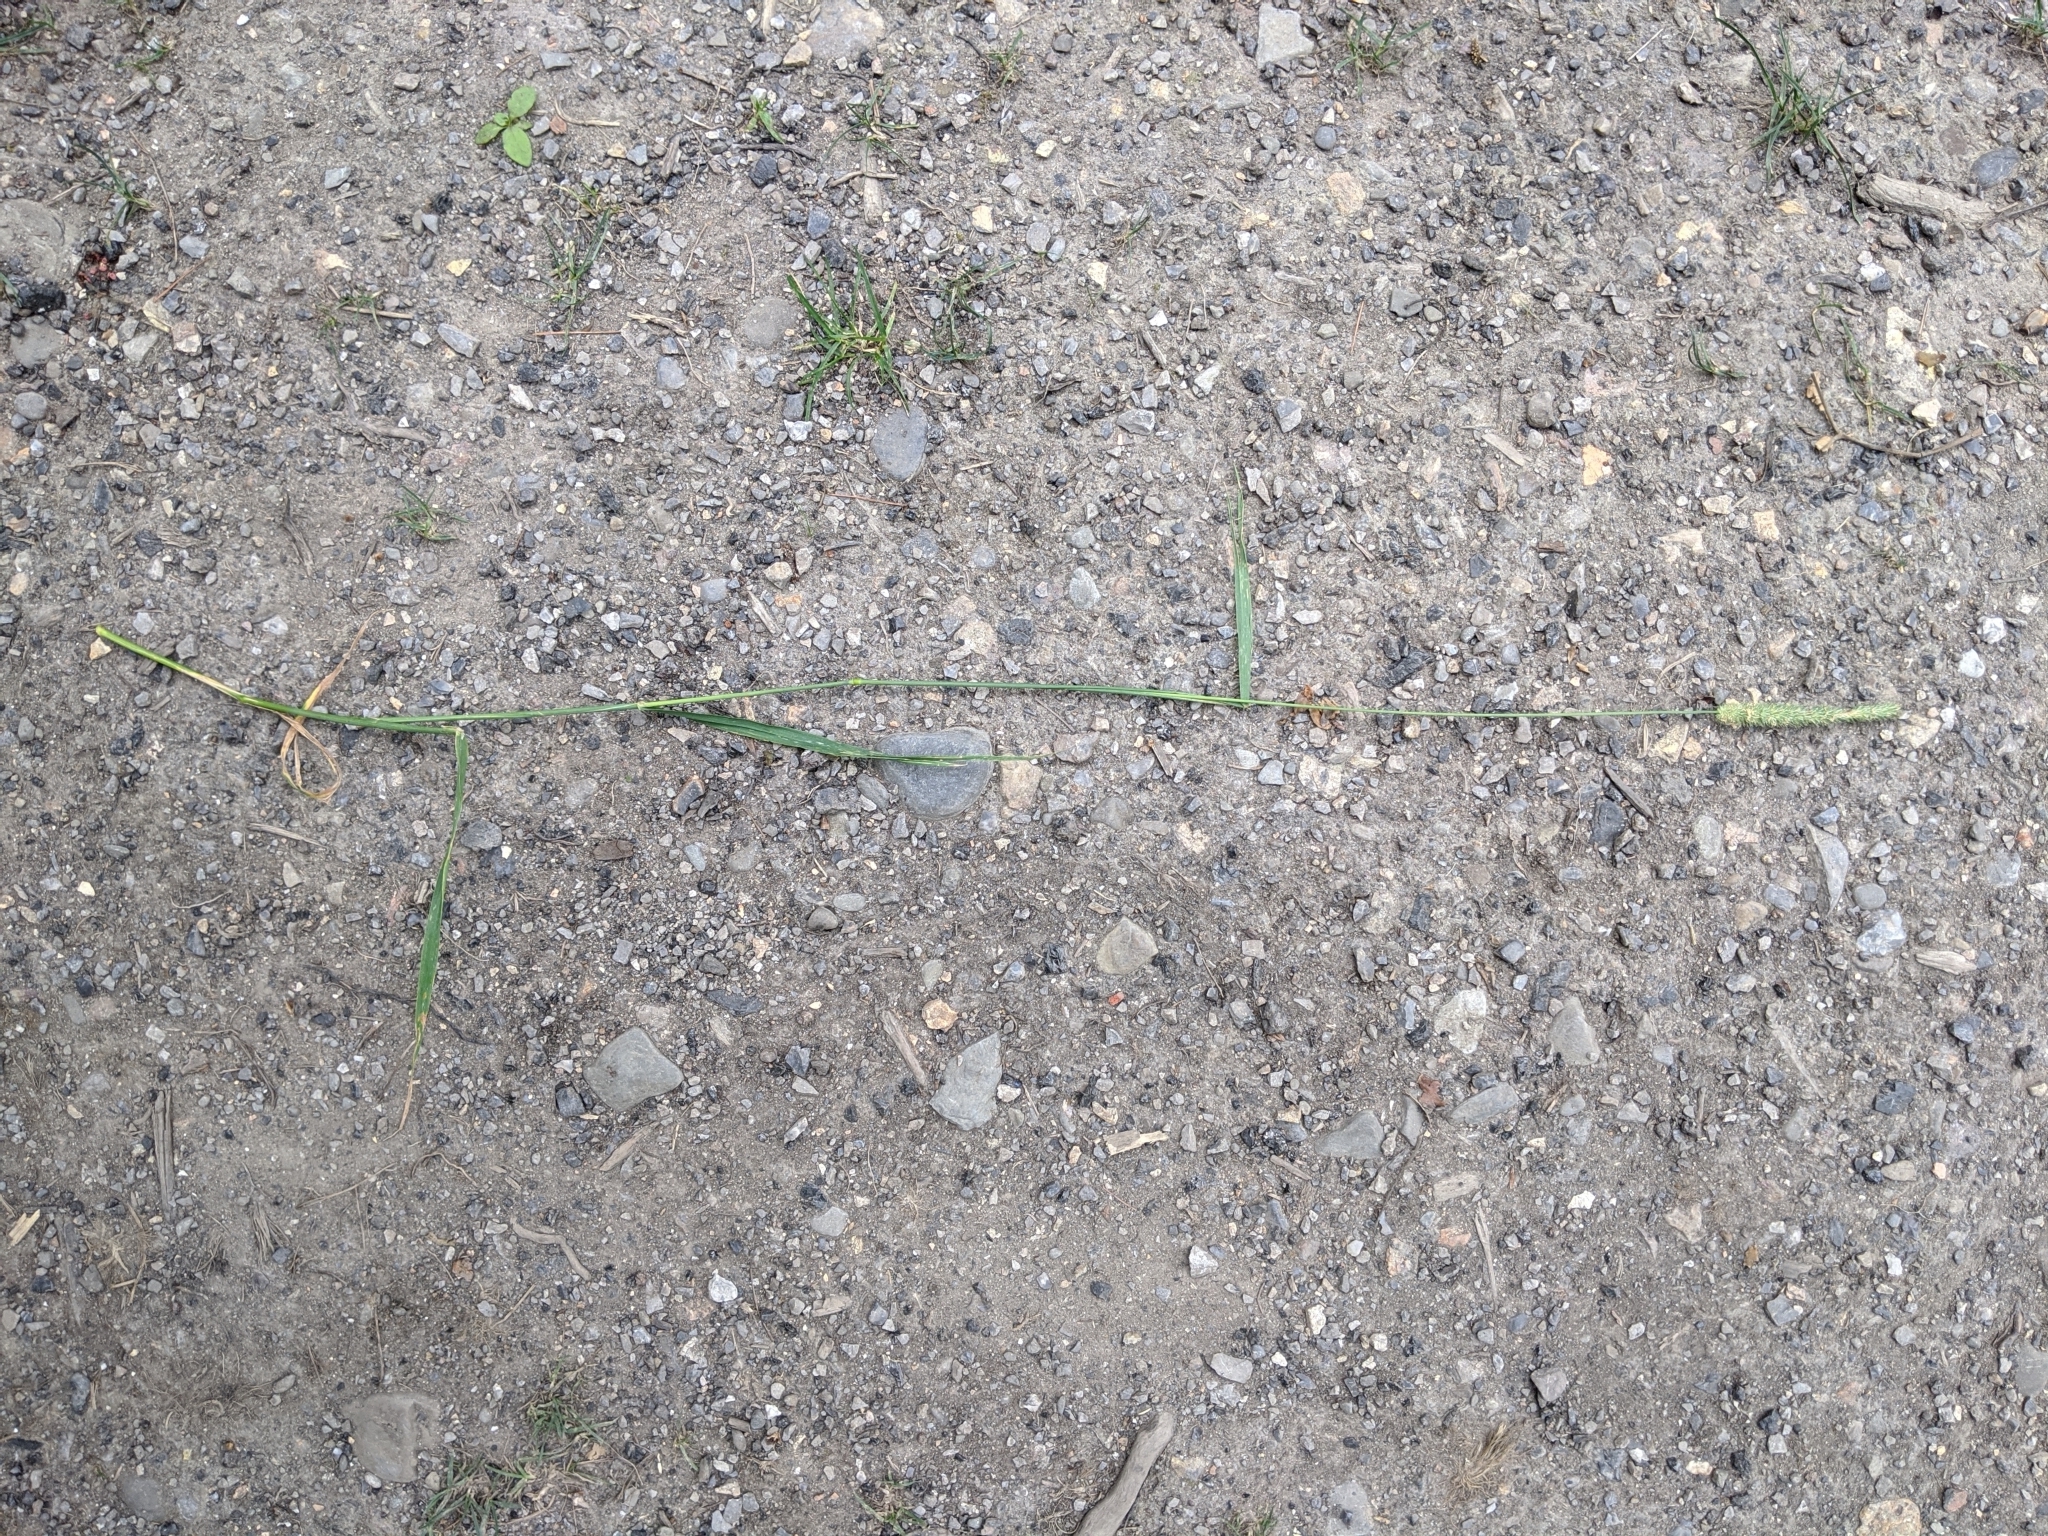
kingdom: Plantae
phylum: Tracheophyta
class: Liliopsida
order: Poales
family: Poaceae
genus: Phleum
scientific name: Phleum pratense
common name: Timothy grass
